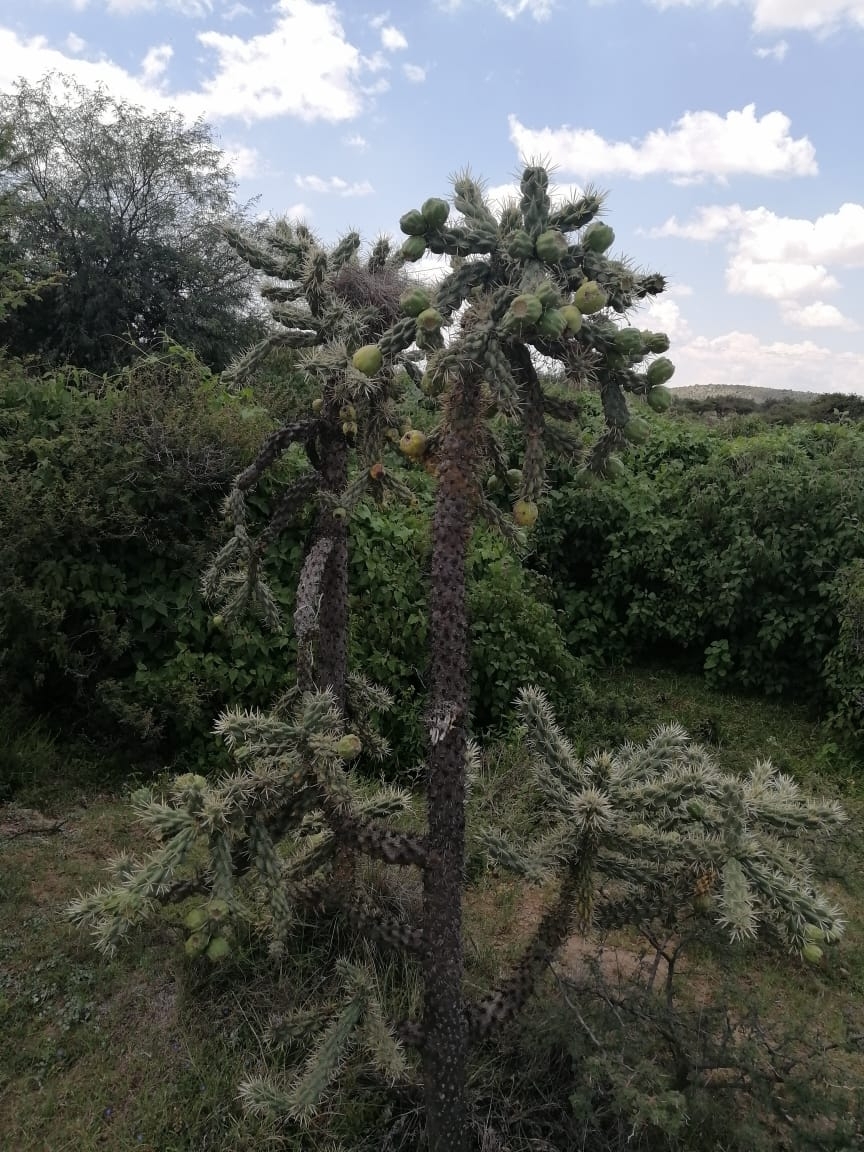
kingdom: Plantae
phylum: Tracheophyta
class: Magnoliopsida
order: Caryophyllales
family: Cactaceae
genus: Cylindropuntia
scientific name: Cylindropuntia imbricata
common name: Candelabrum cactus
